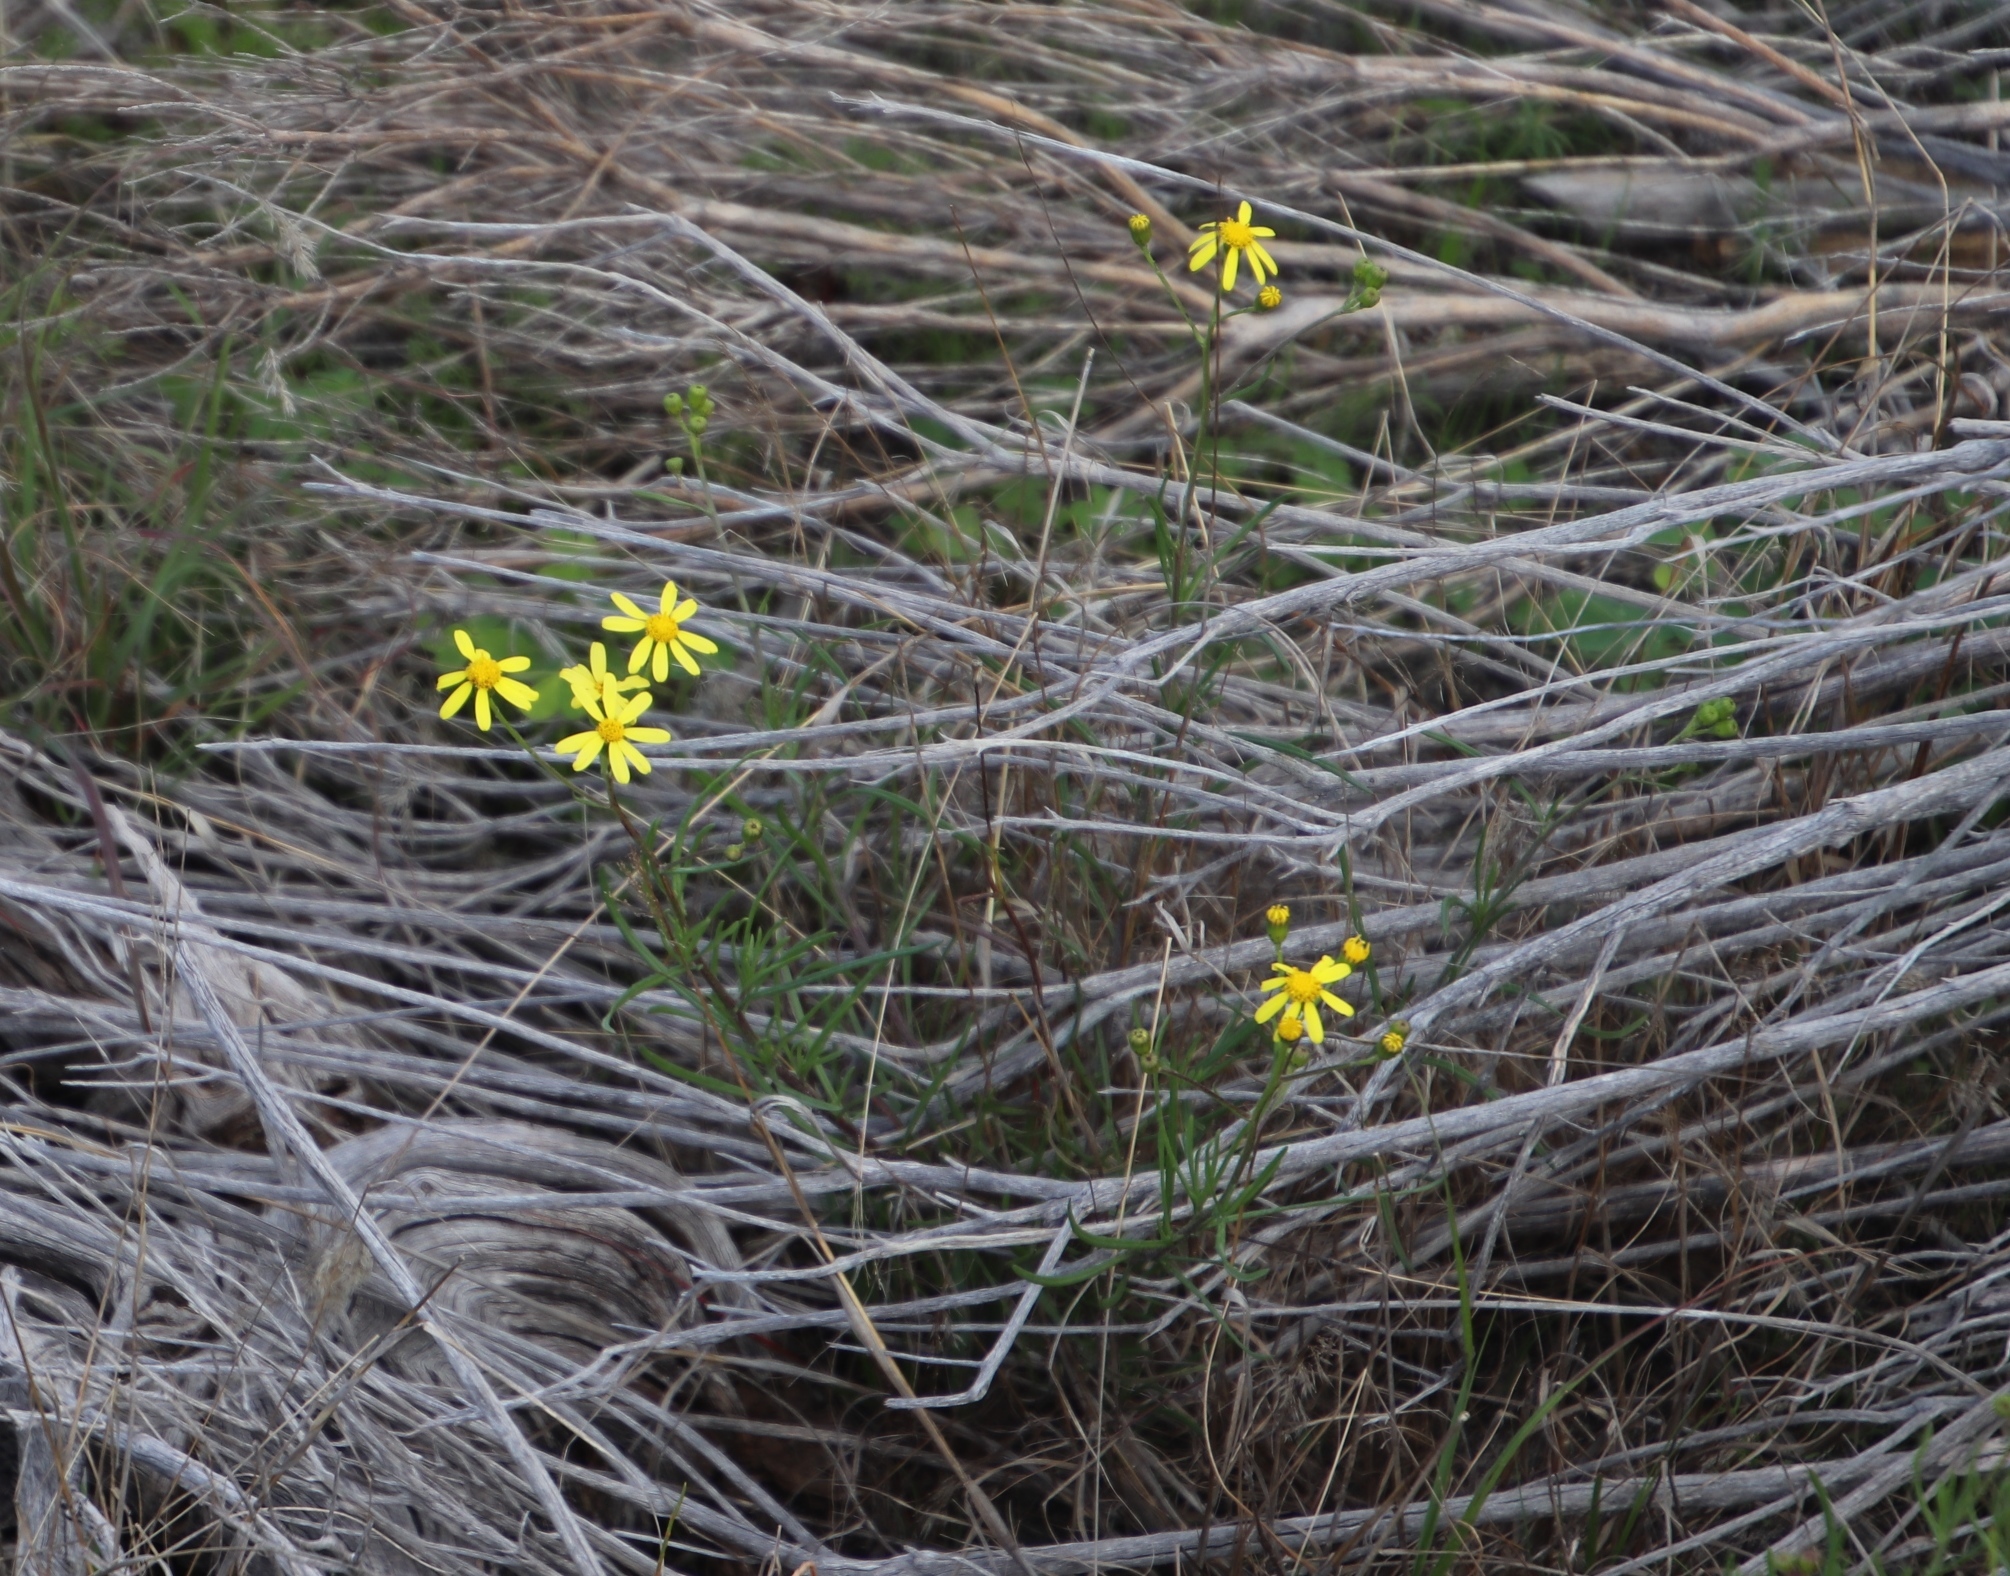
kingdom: Plantae
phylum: Tracheophyta
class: Magnoliopsida
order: Asterales
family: Asteraceae
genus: Senecio
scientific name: Senecio burchellii
